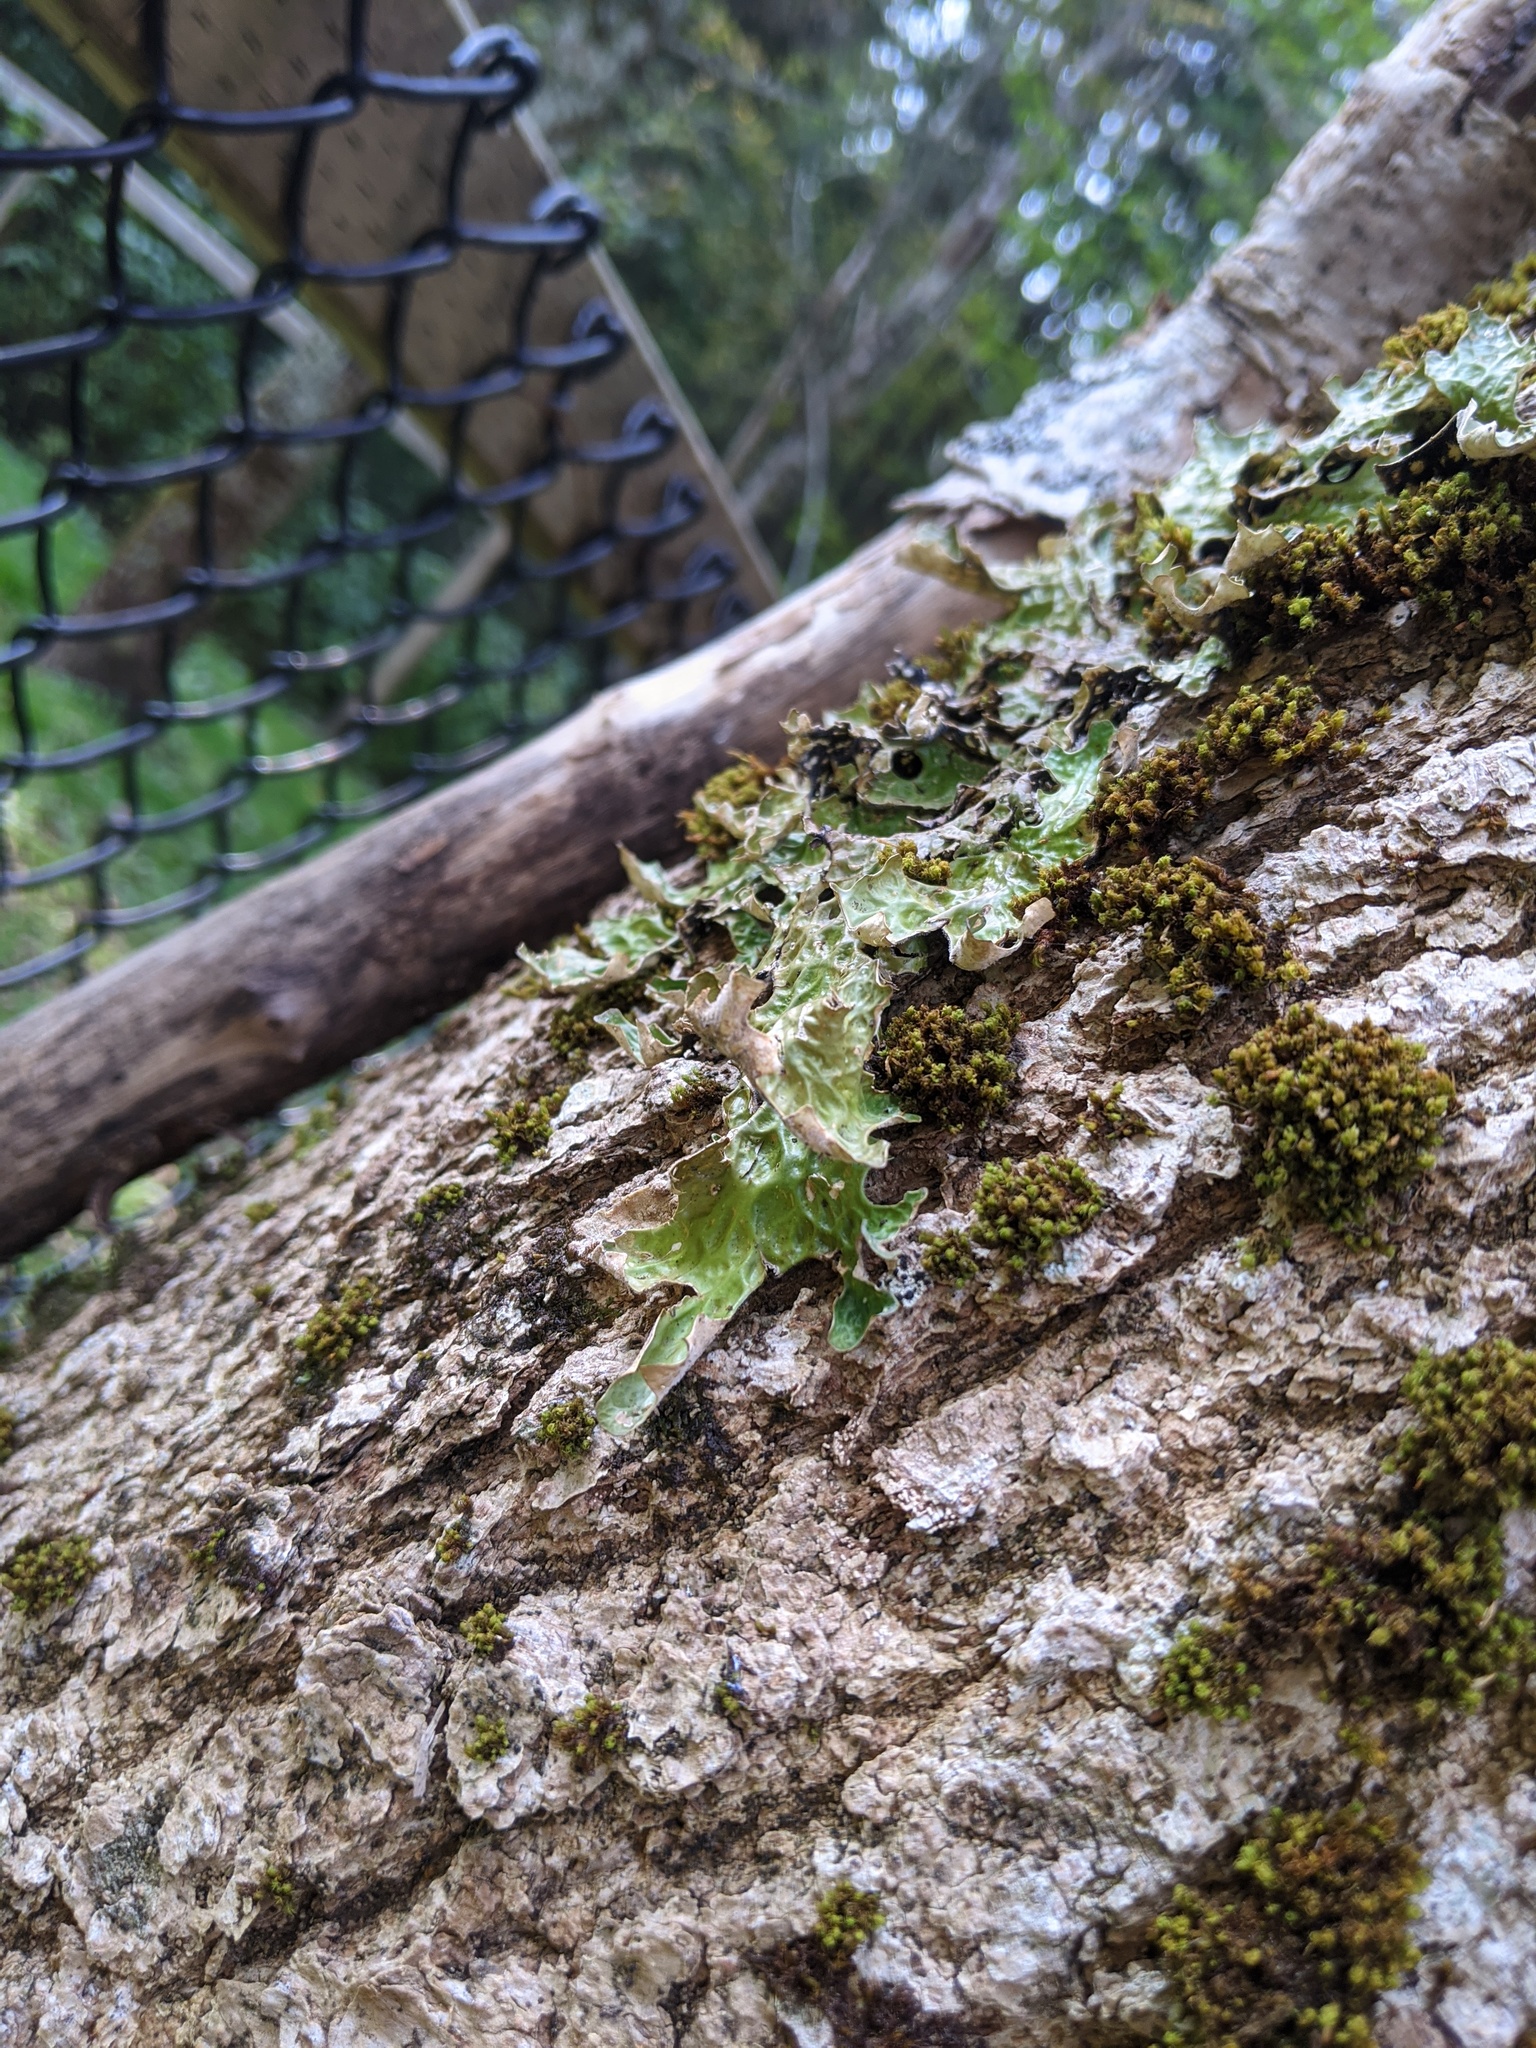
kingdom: Fungi
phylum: Ascomycota
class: Lecanoromycetes
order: Peltigerales
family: Lobariaceae
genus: Lobaria
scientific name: Lobaria pulmonaria
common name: Lungwort
